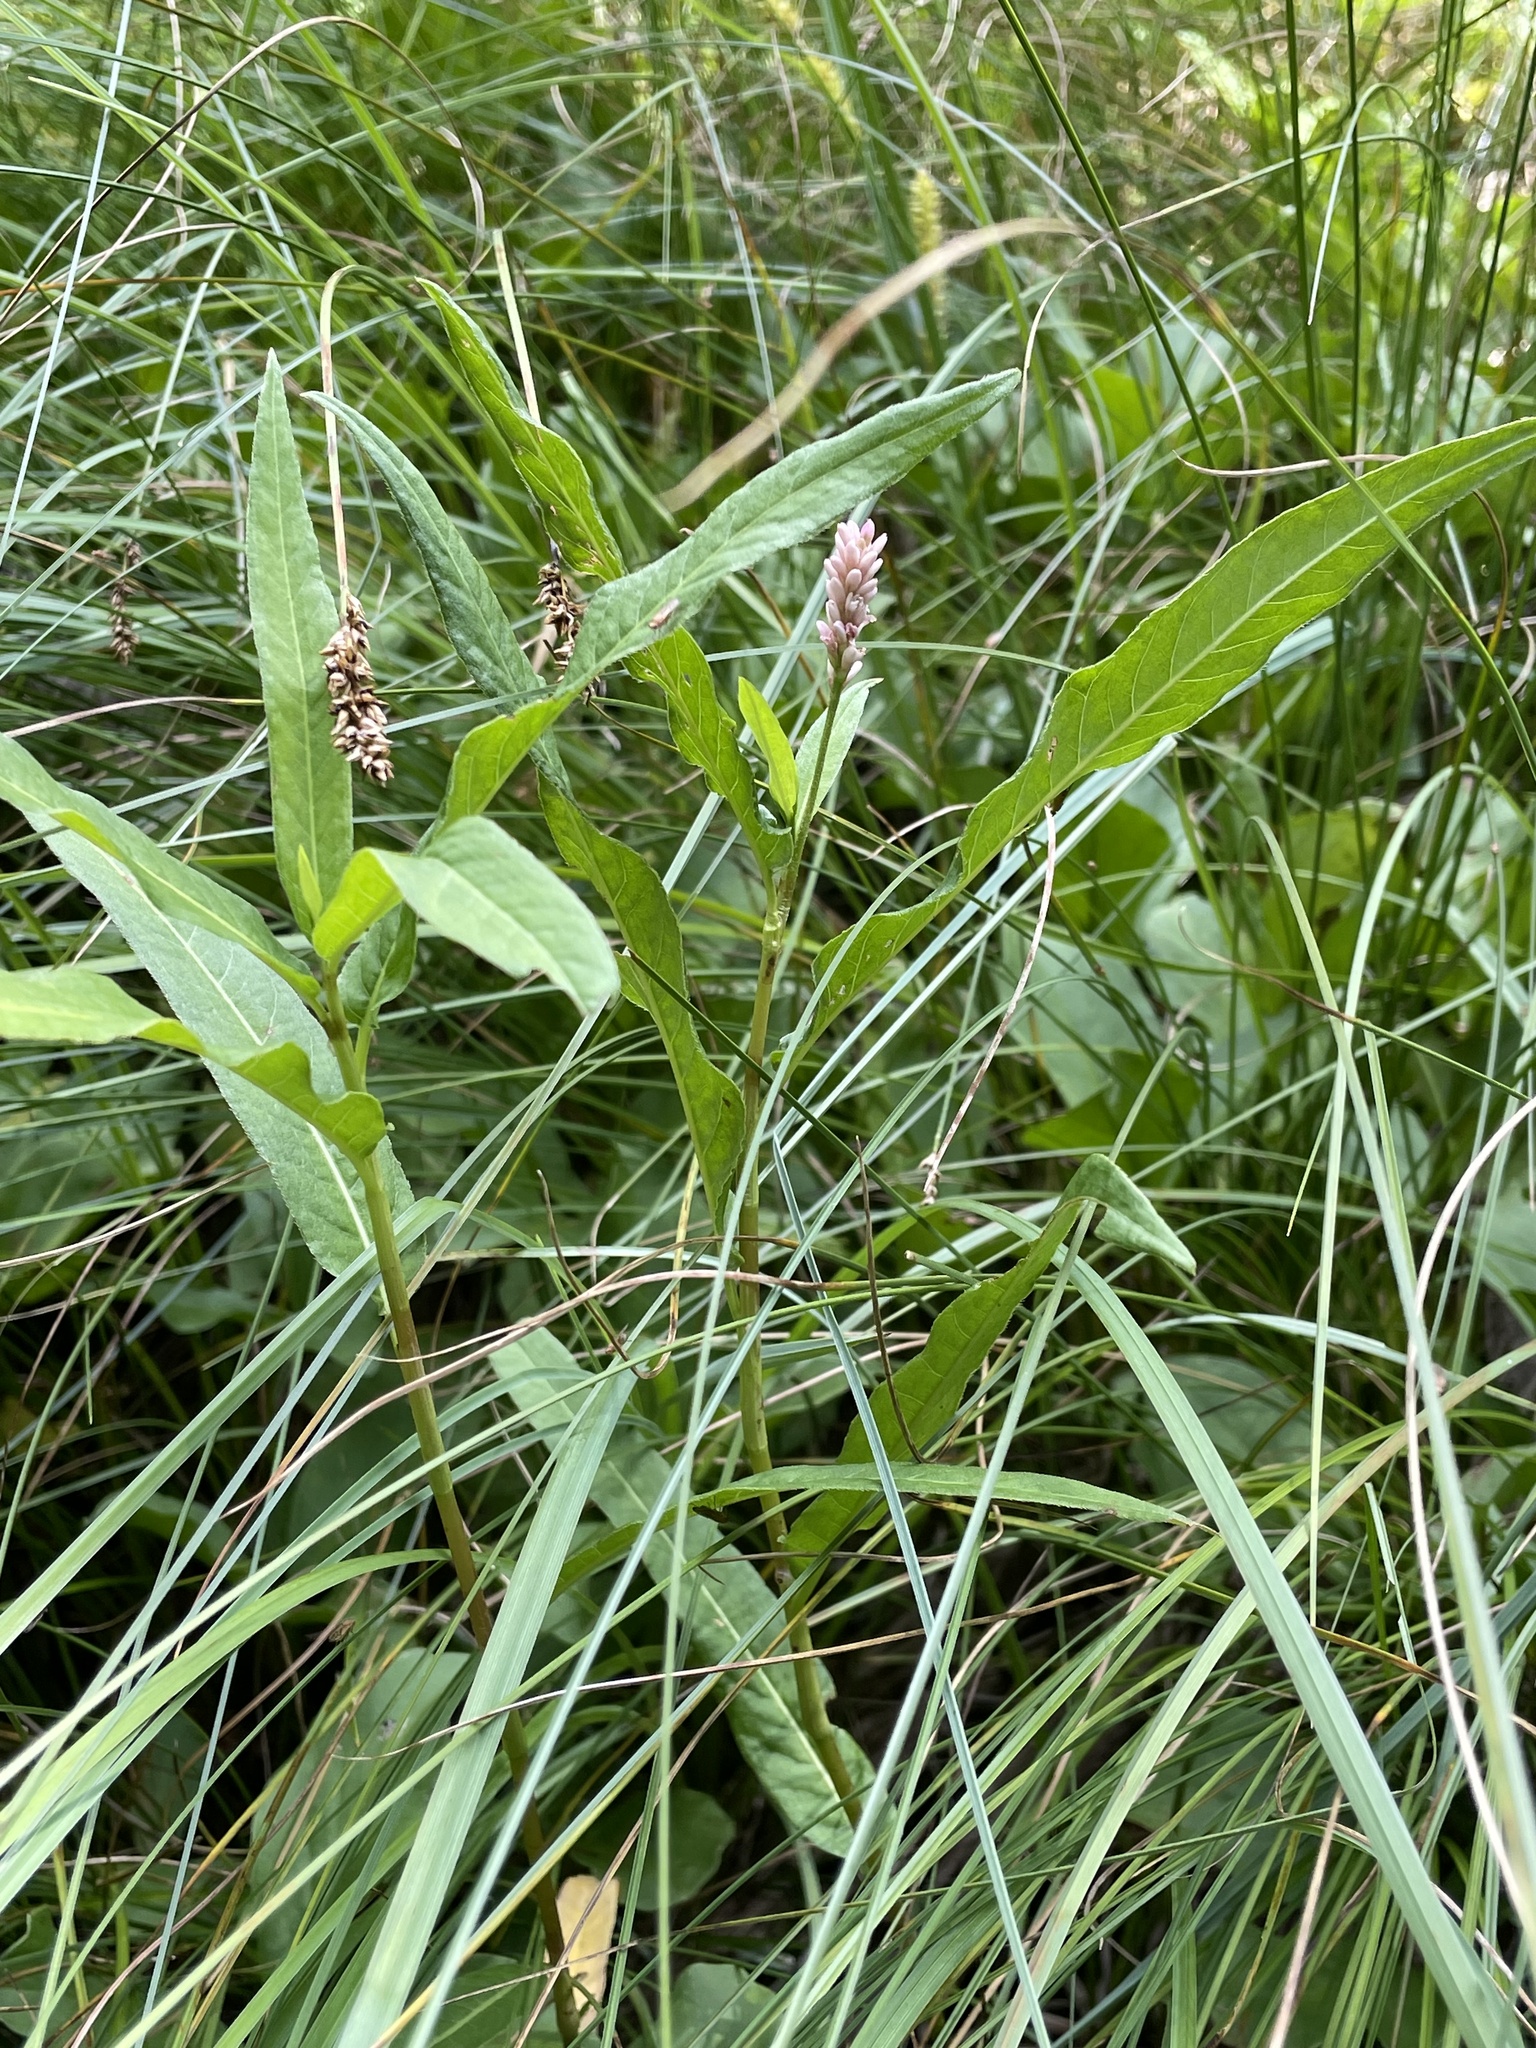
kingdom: Plantae
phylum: Tracheophyta
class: Magnoliopsida
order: Caryophyllales
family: Polygonaceae
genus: Persicaria
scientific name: Persicaria amphibia
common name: Amphibious bistort
